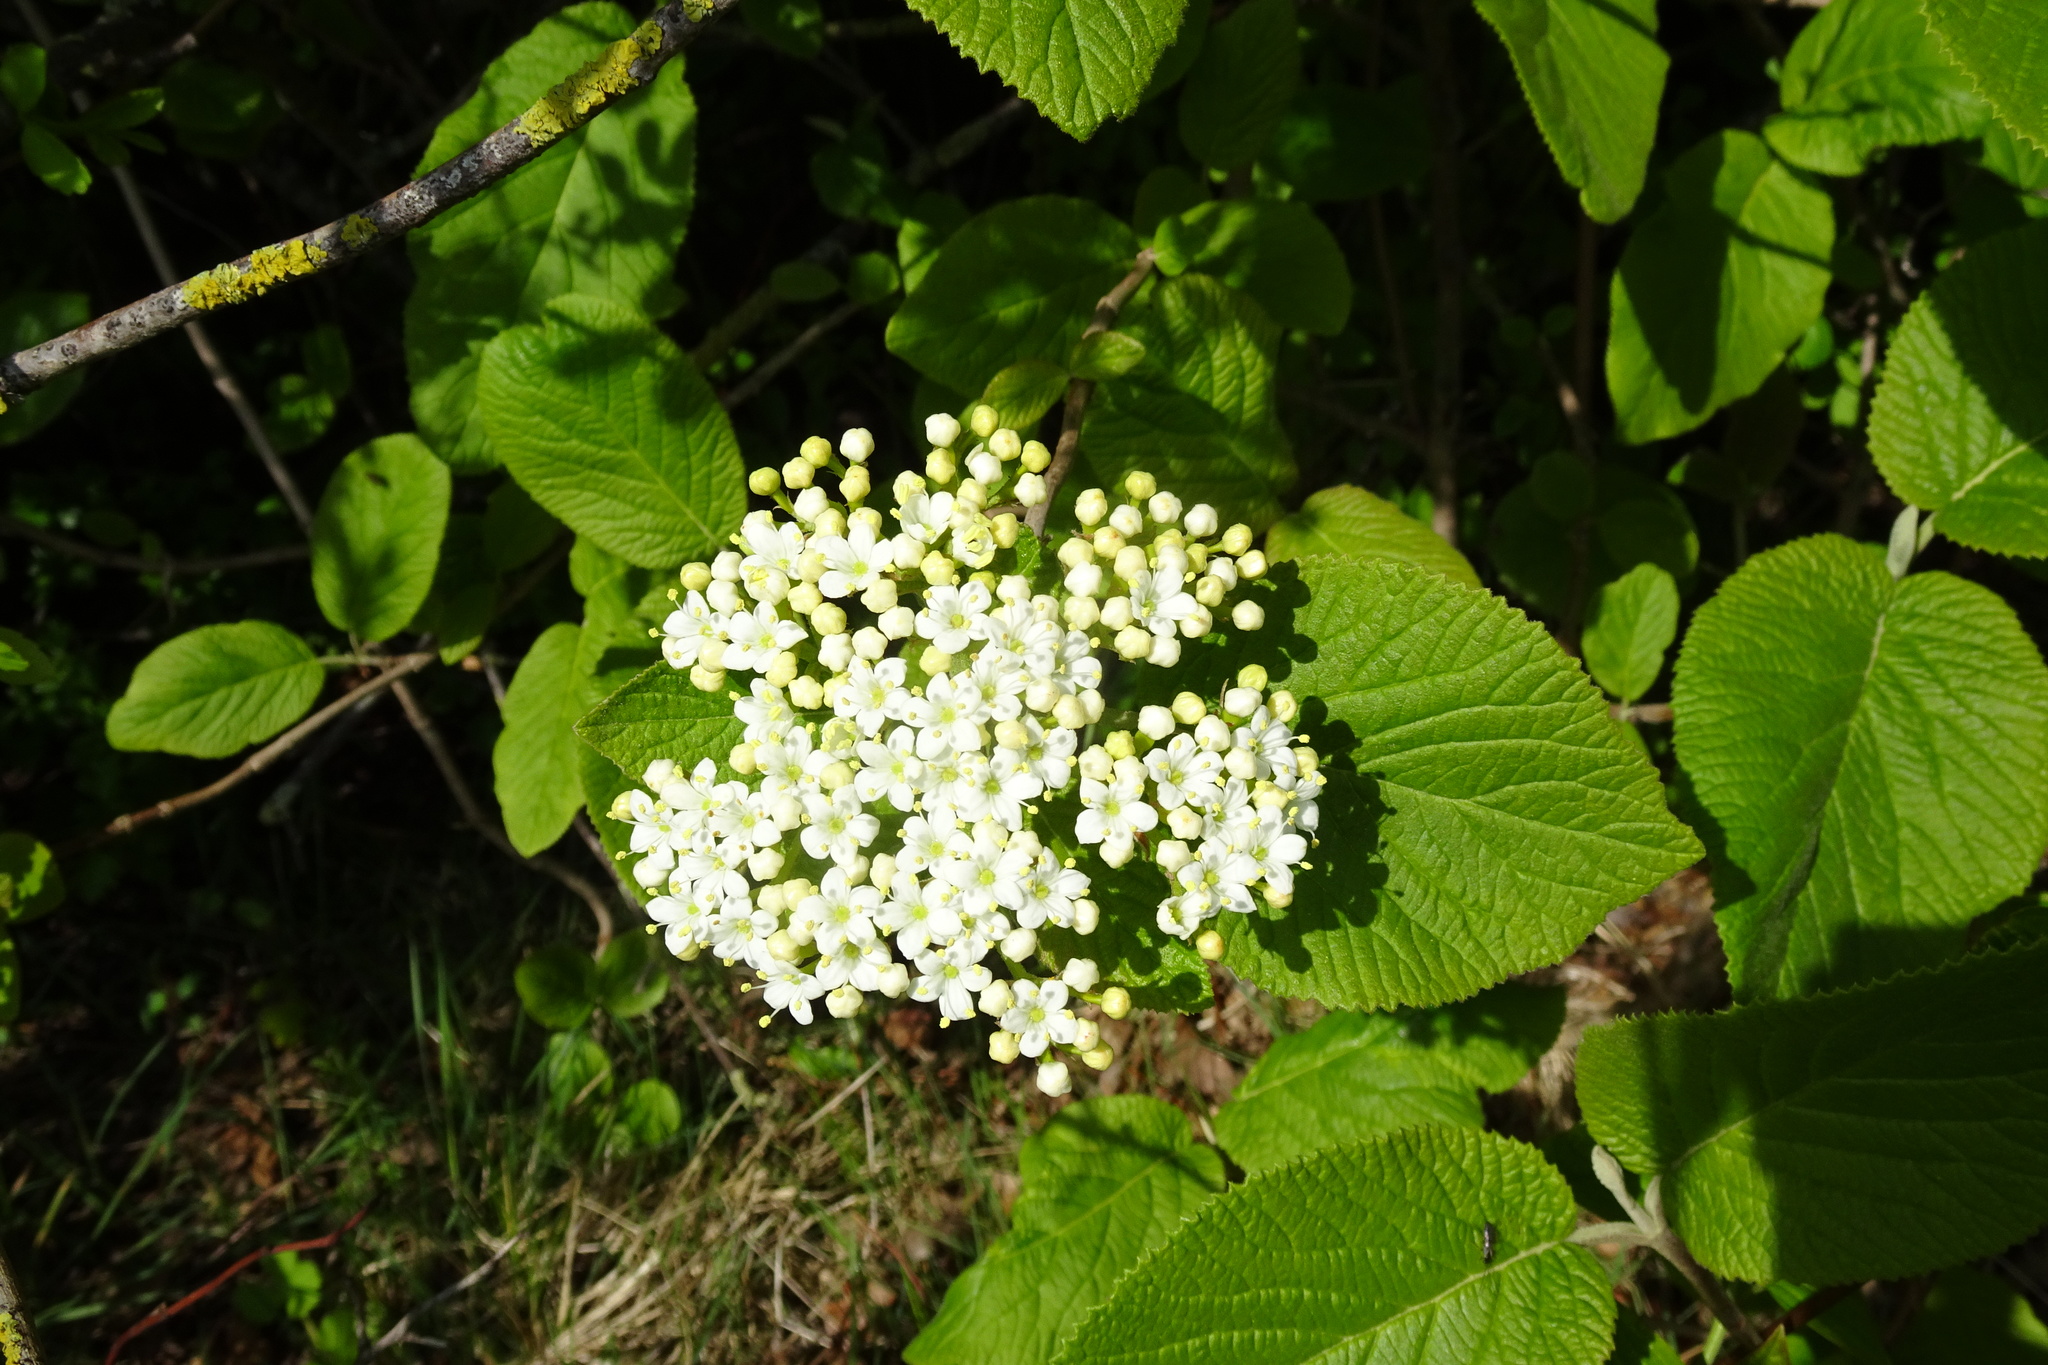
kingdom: Plantae
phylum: Tracheophyta
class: Magnoliopsida
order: Dipsacales
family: Viburnaceae
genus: Viburnum
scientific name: Viburnum lantana
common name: Wayfaring tree
